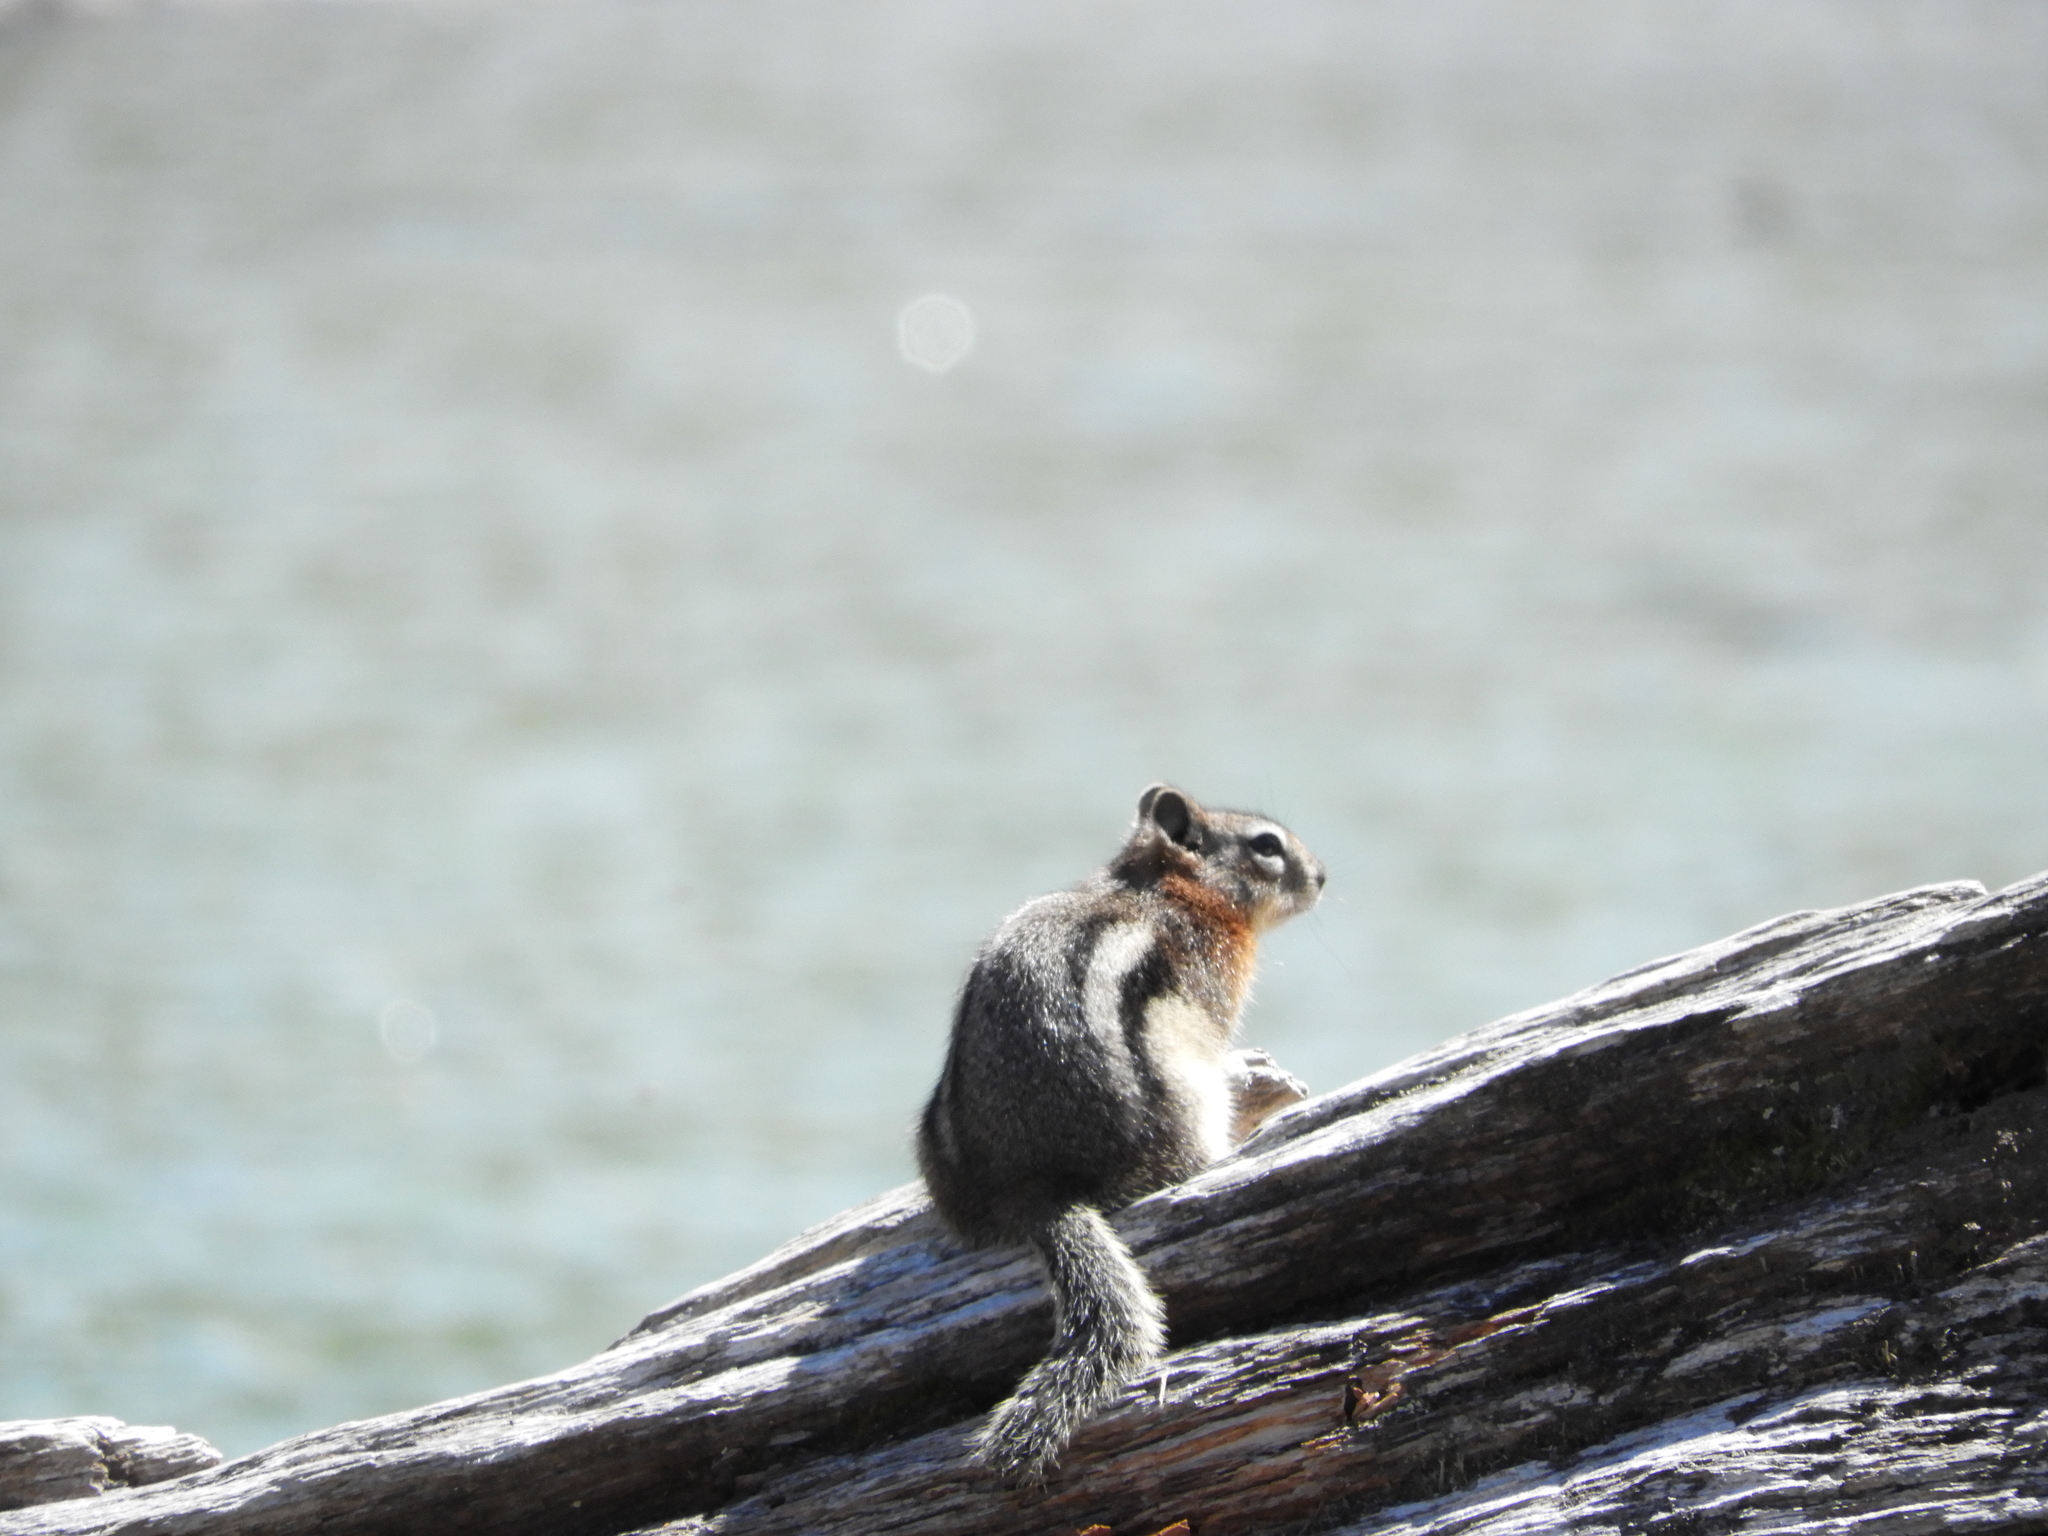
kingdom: Animalia
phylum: Chordata
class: Mammalia
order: Rodentia
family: Sciuridae
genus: Callospermophilus
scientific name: Callospermophilus lateralis
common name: Golden-mantled ground squirrel
